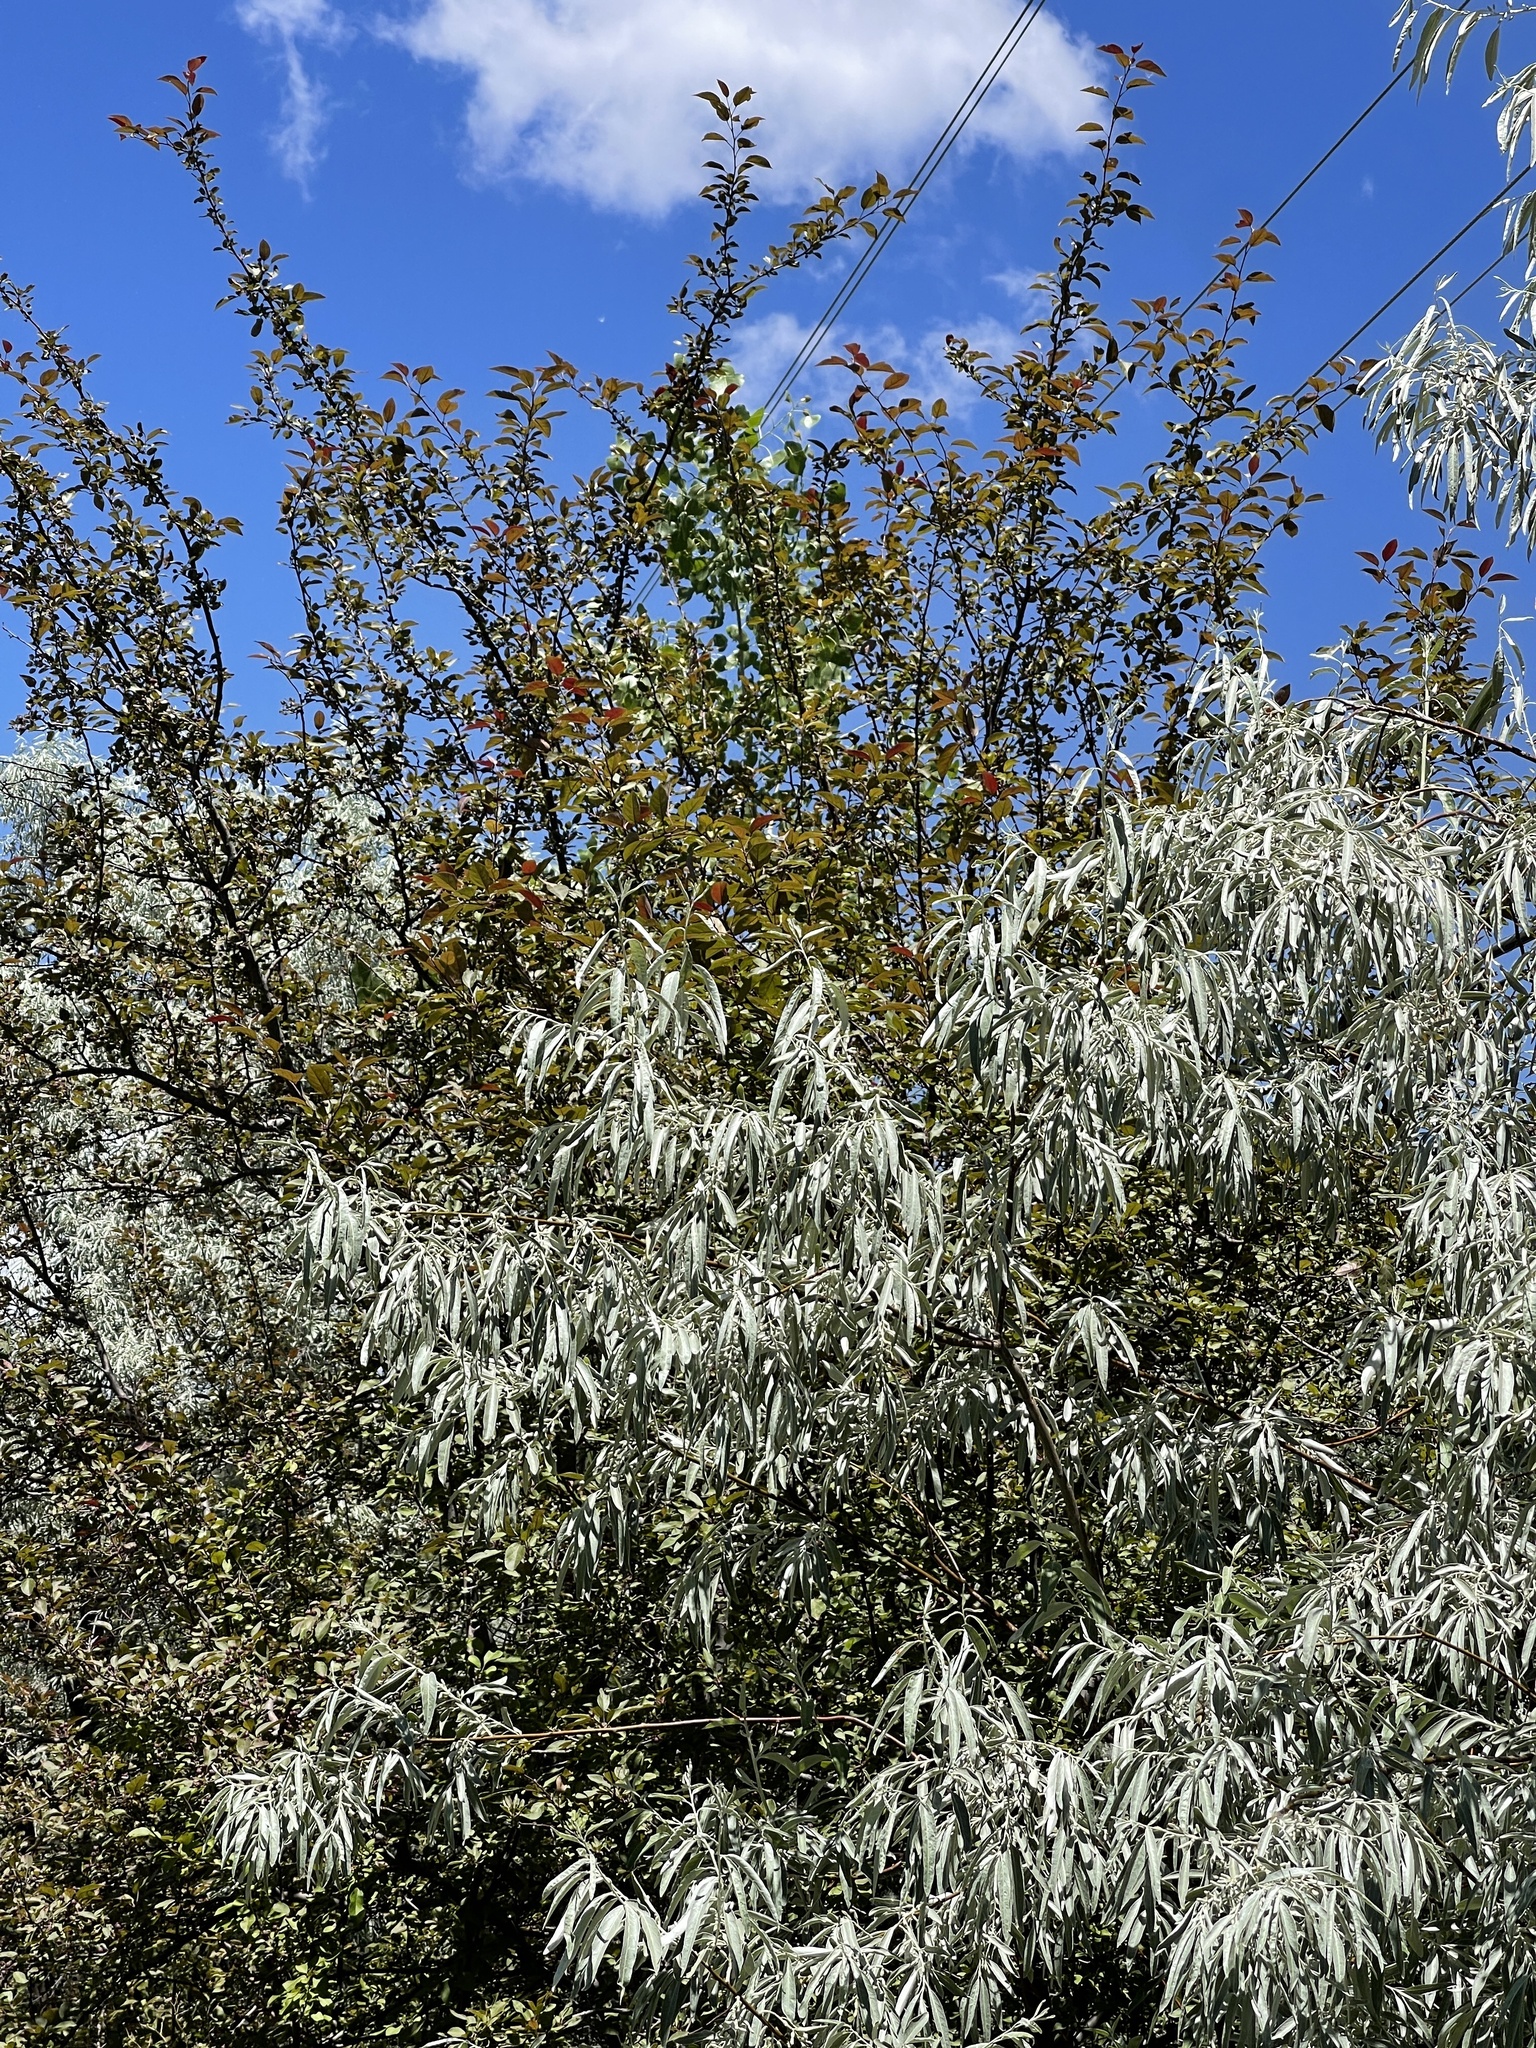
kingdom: Plantae
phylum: Tracheophyta
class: Magnoliopsida
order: Rosales
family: Elaeagnaceae
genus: Elaeagnus
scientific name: Elaeagnus angustifolia
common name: Russian olive
